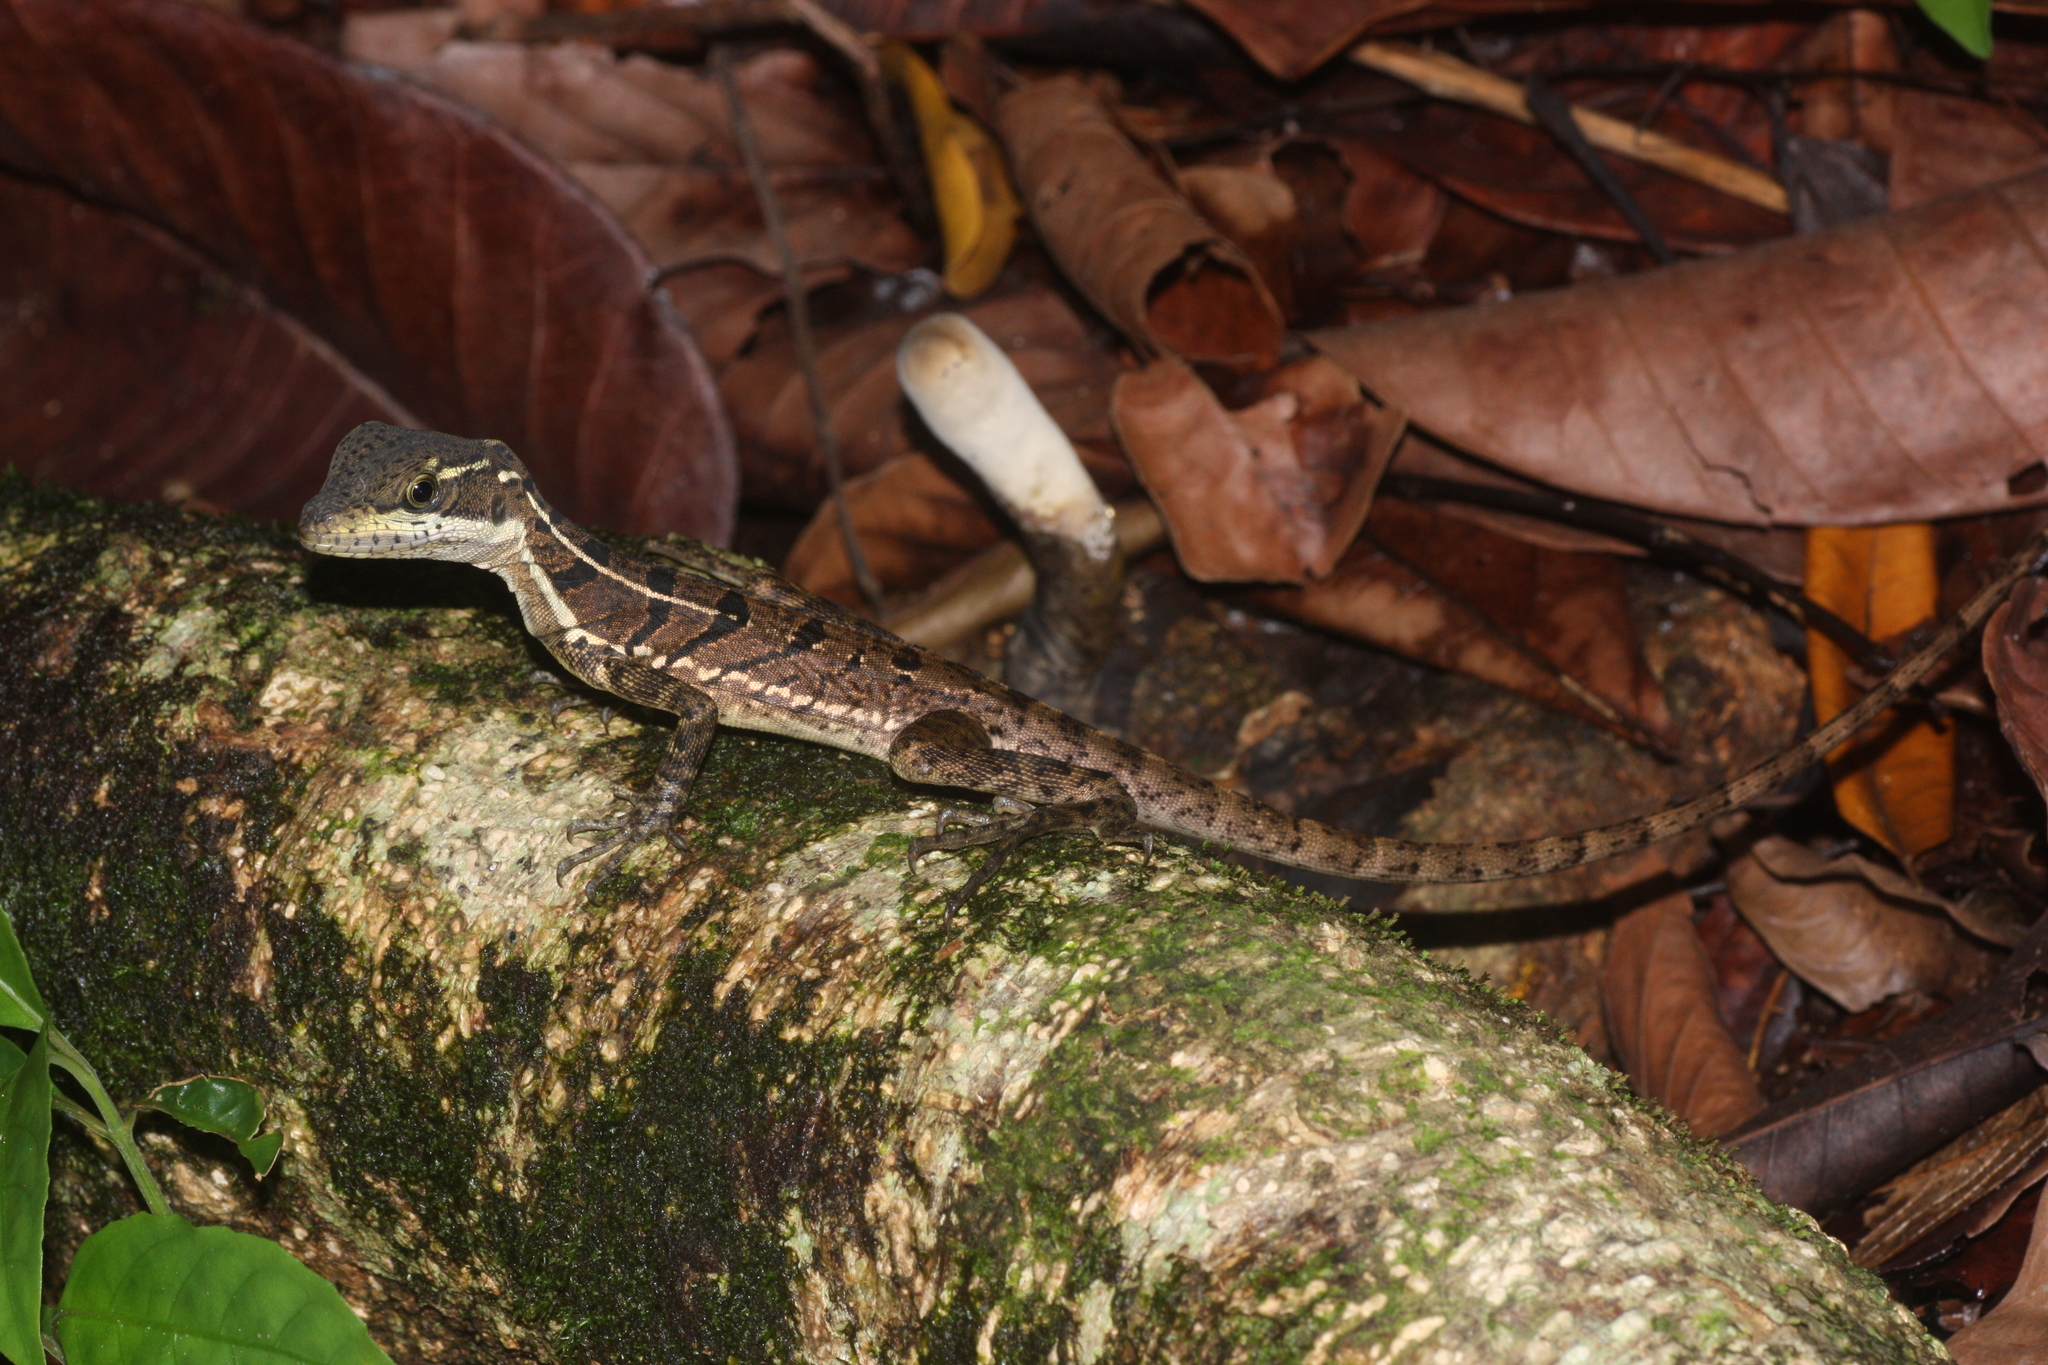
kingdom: Animalia
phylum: Chordata
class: Squamata
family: Corytophanidae
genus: Basiliscus
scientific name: Basiliscus basiliscus
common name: Common basilisk
